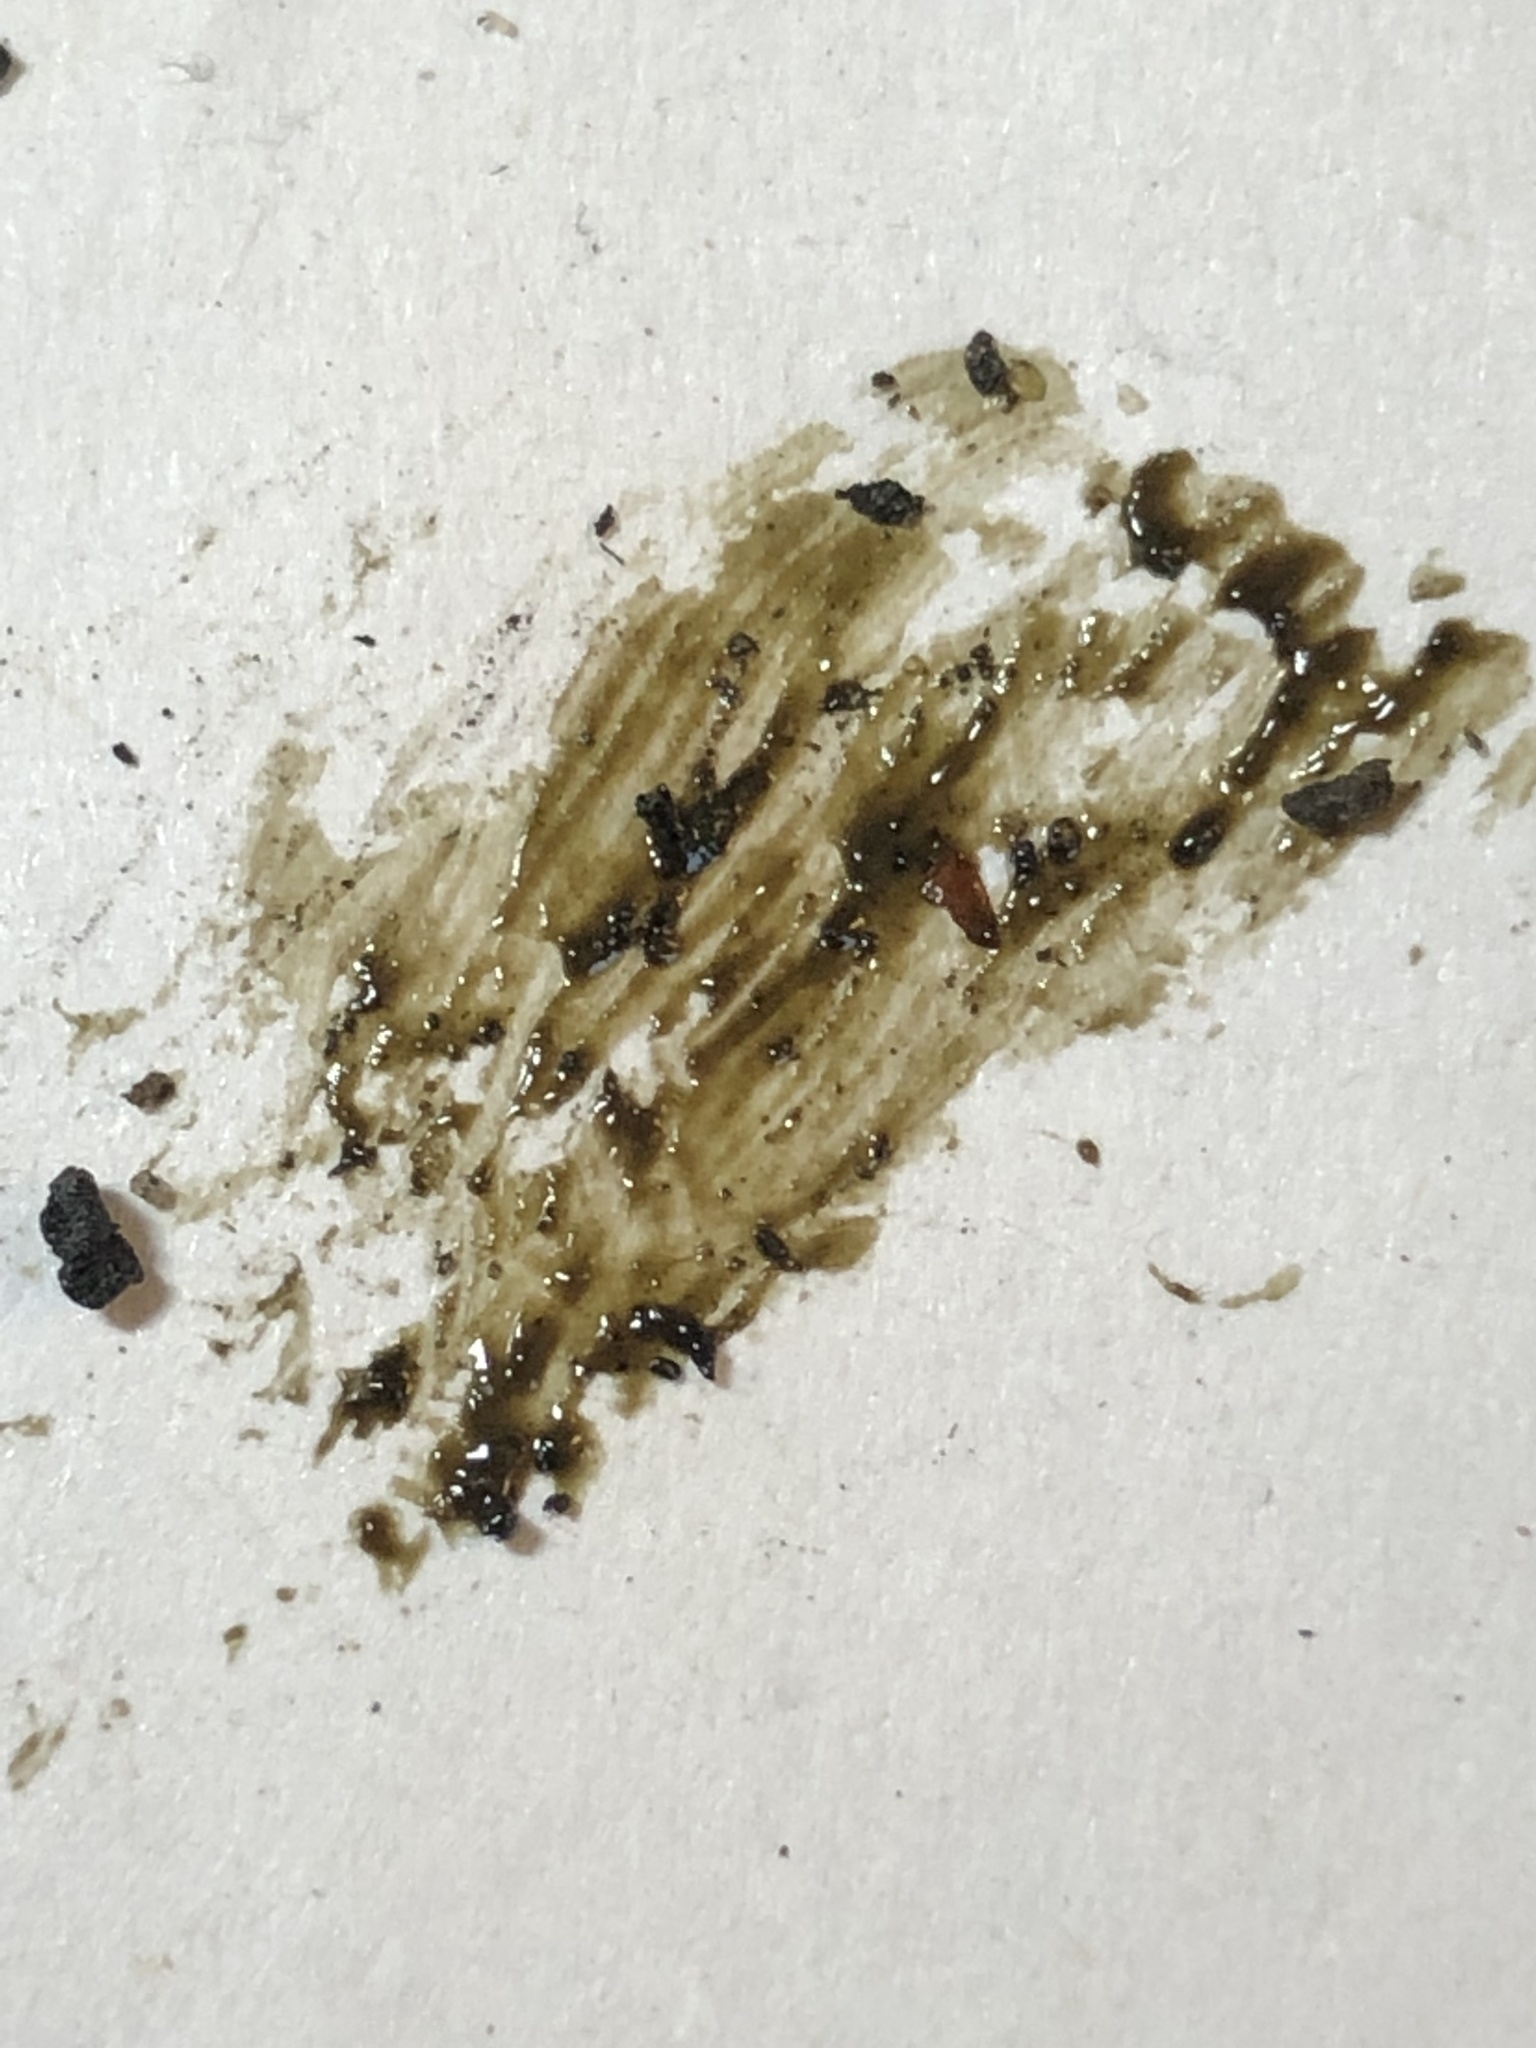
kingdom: Fungi
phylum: Basidiomycota
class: Agaricomycetes
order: Phallales
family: Phallaceae
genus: Phallus
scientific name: Phallus ravenelii
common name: Ravenel's stinkhorn
